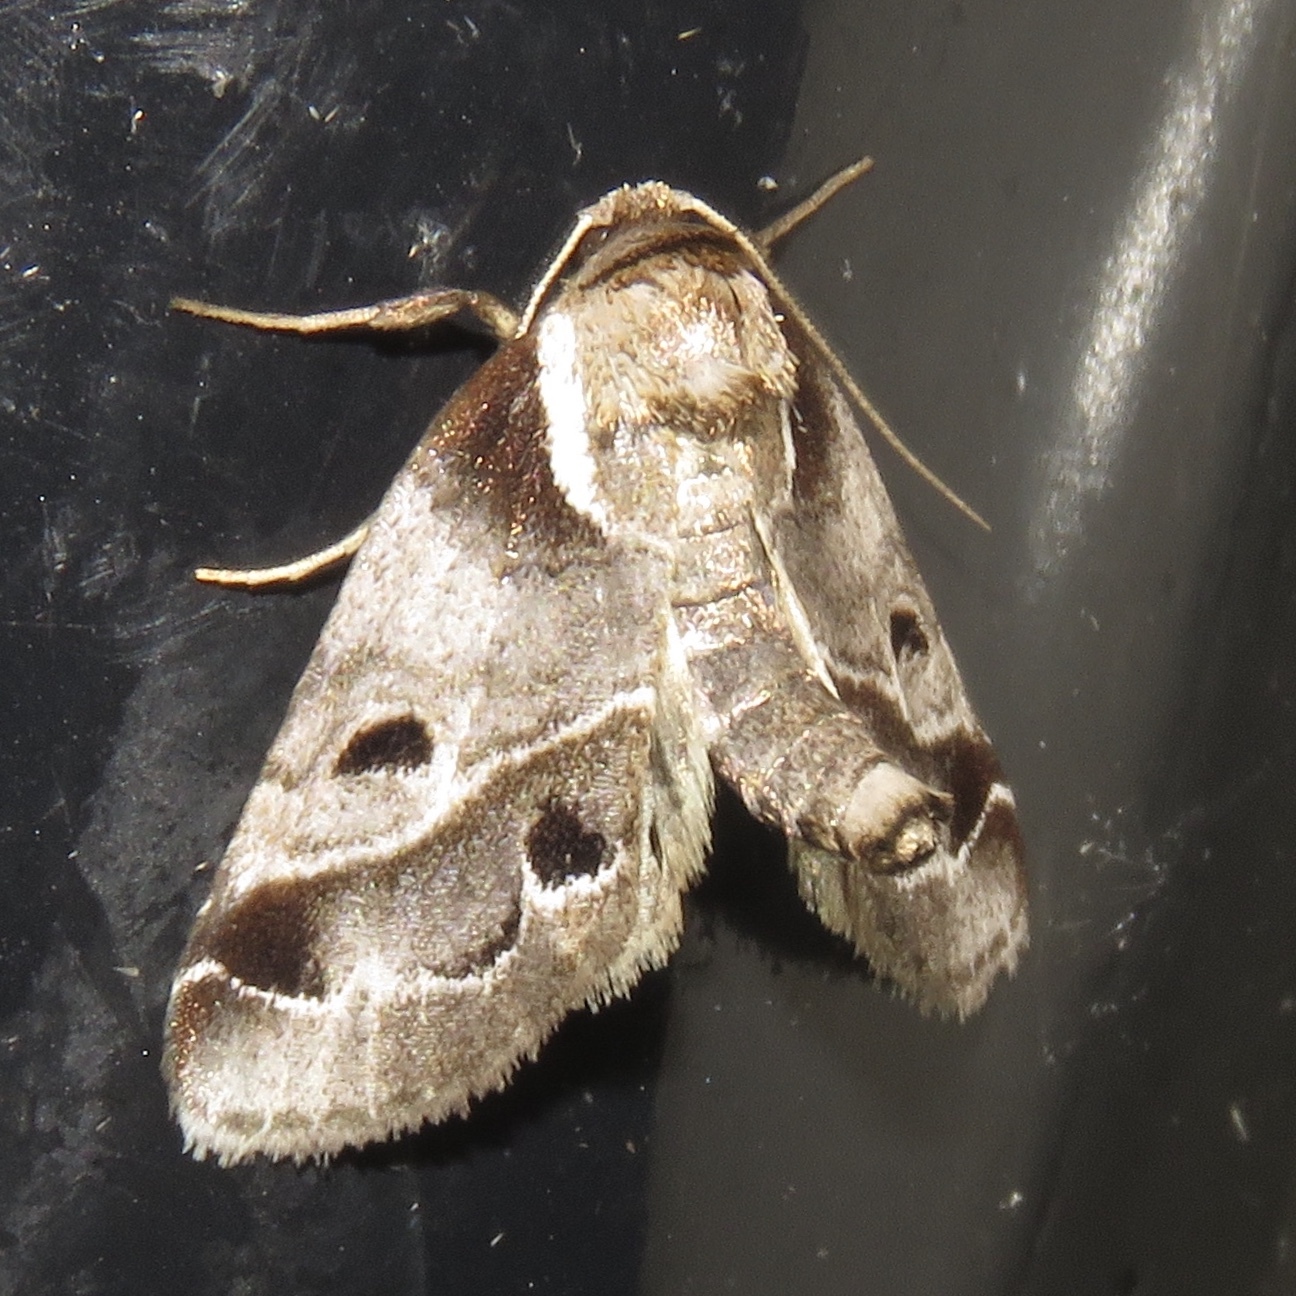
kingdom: Animalia
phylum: Arthropoda
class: Insecta
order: Lepidoptera
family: Nolidae
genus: Baileya
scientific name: Baileya doubledayi
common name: Doubleday's baileya moth
